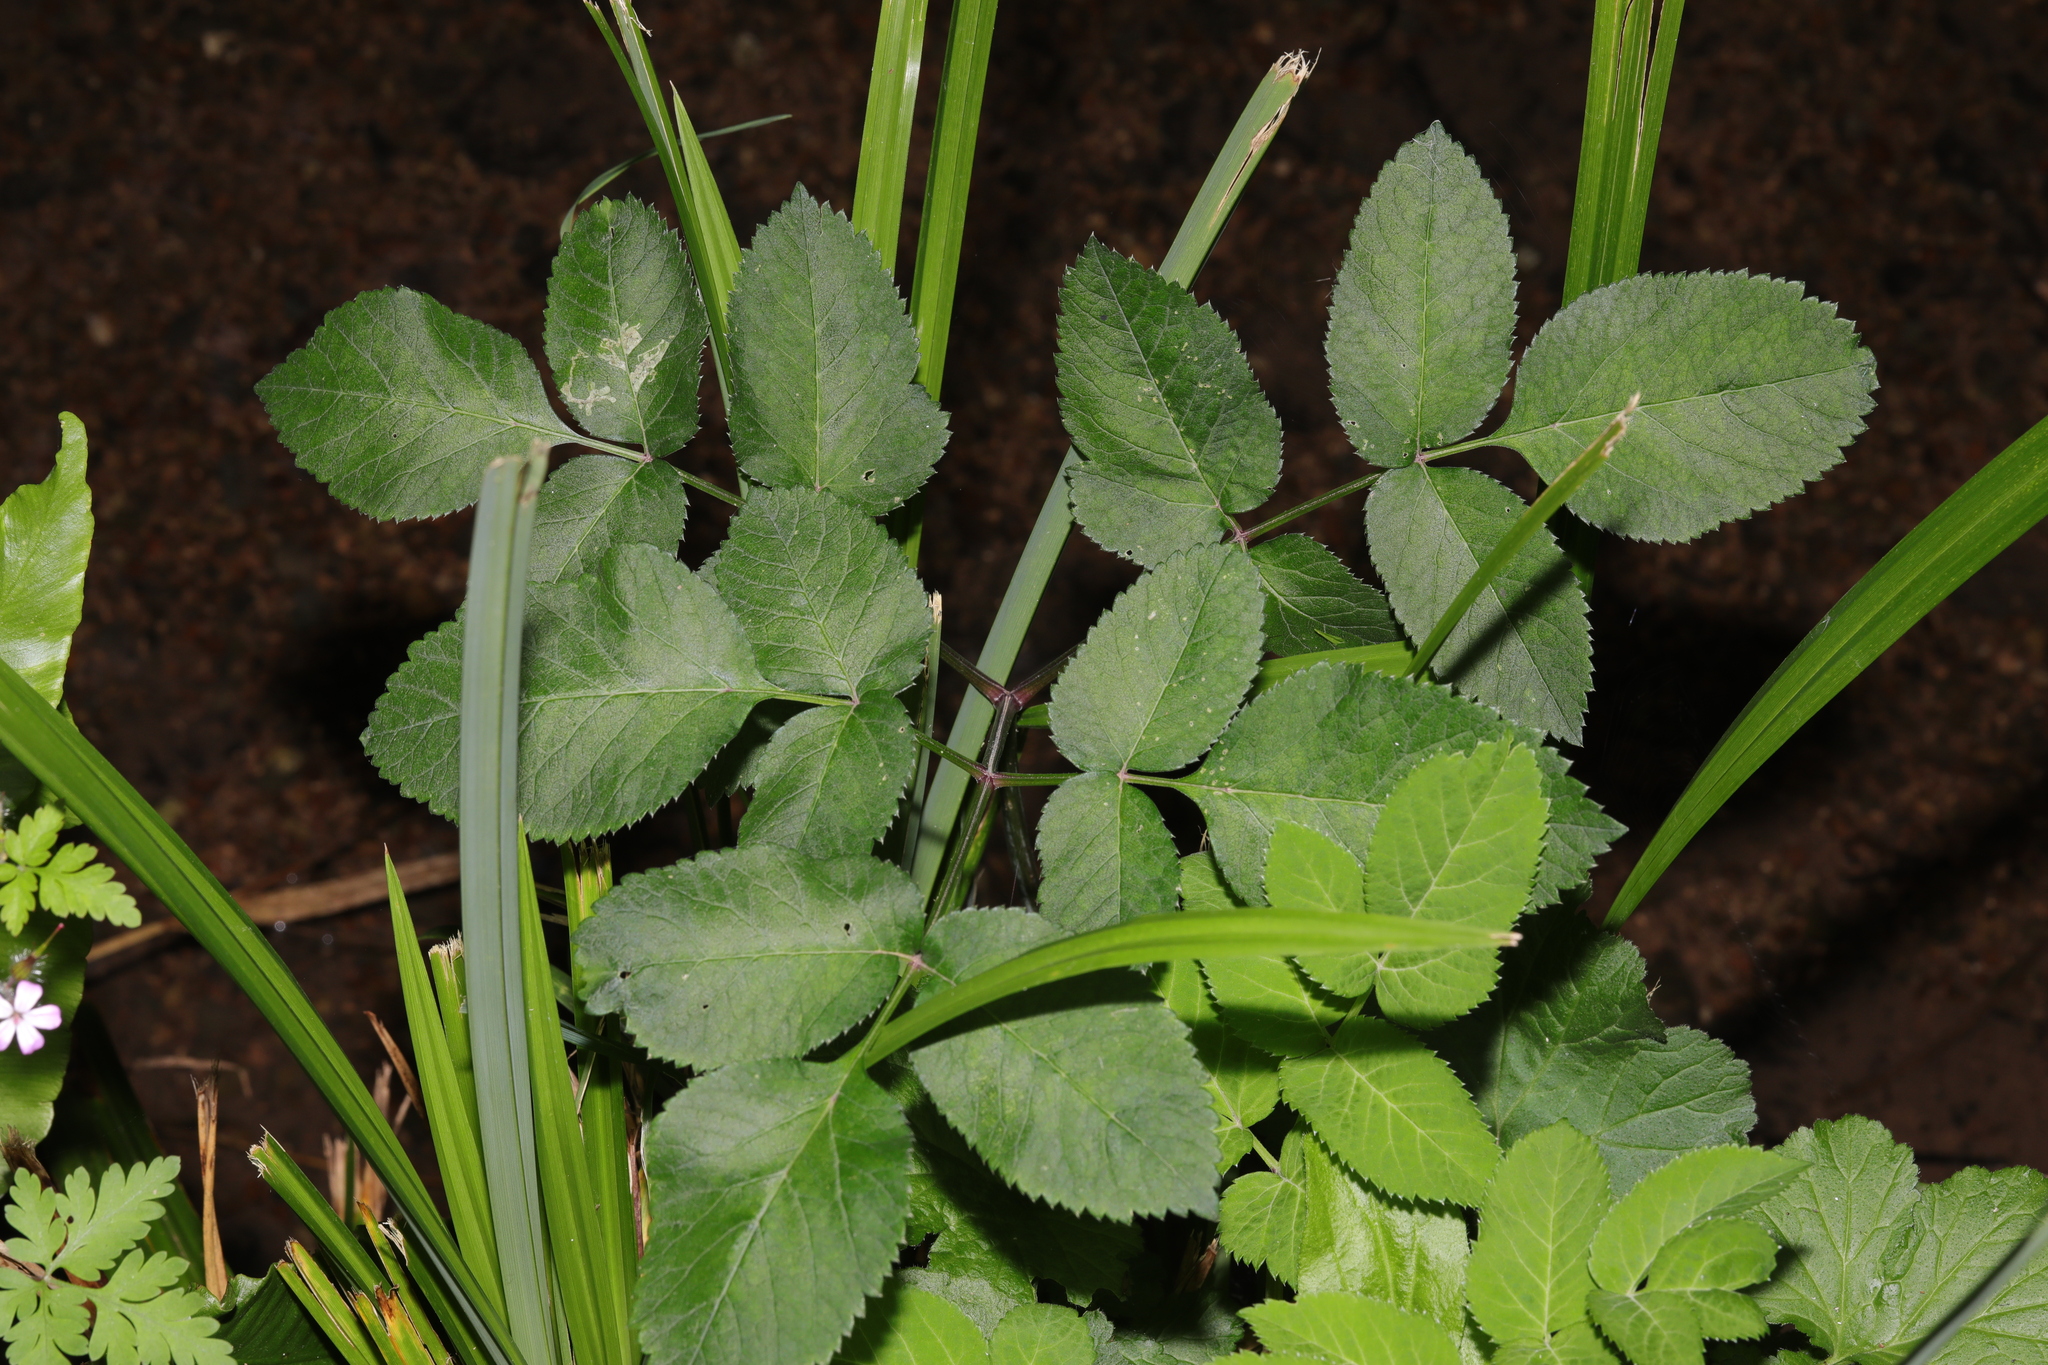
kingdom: Plantae
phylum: Tracheophyta
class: Magnoliopsida
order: Apiales
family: Apiaceae
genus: Angelica
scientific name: Angelica sylvestris
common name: Wild angelica
